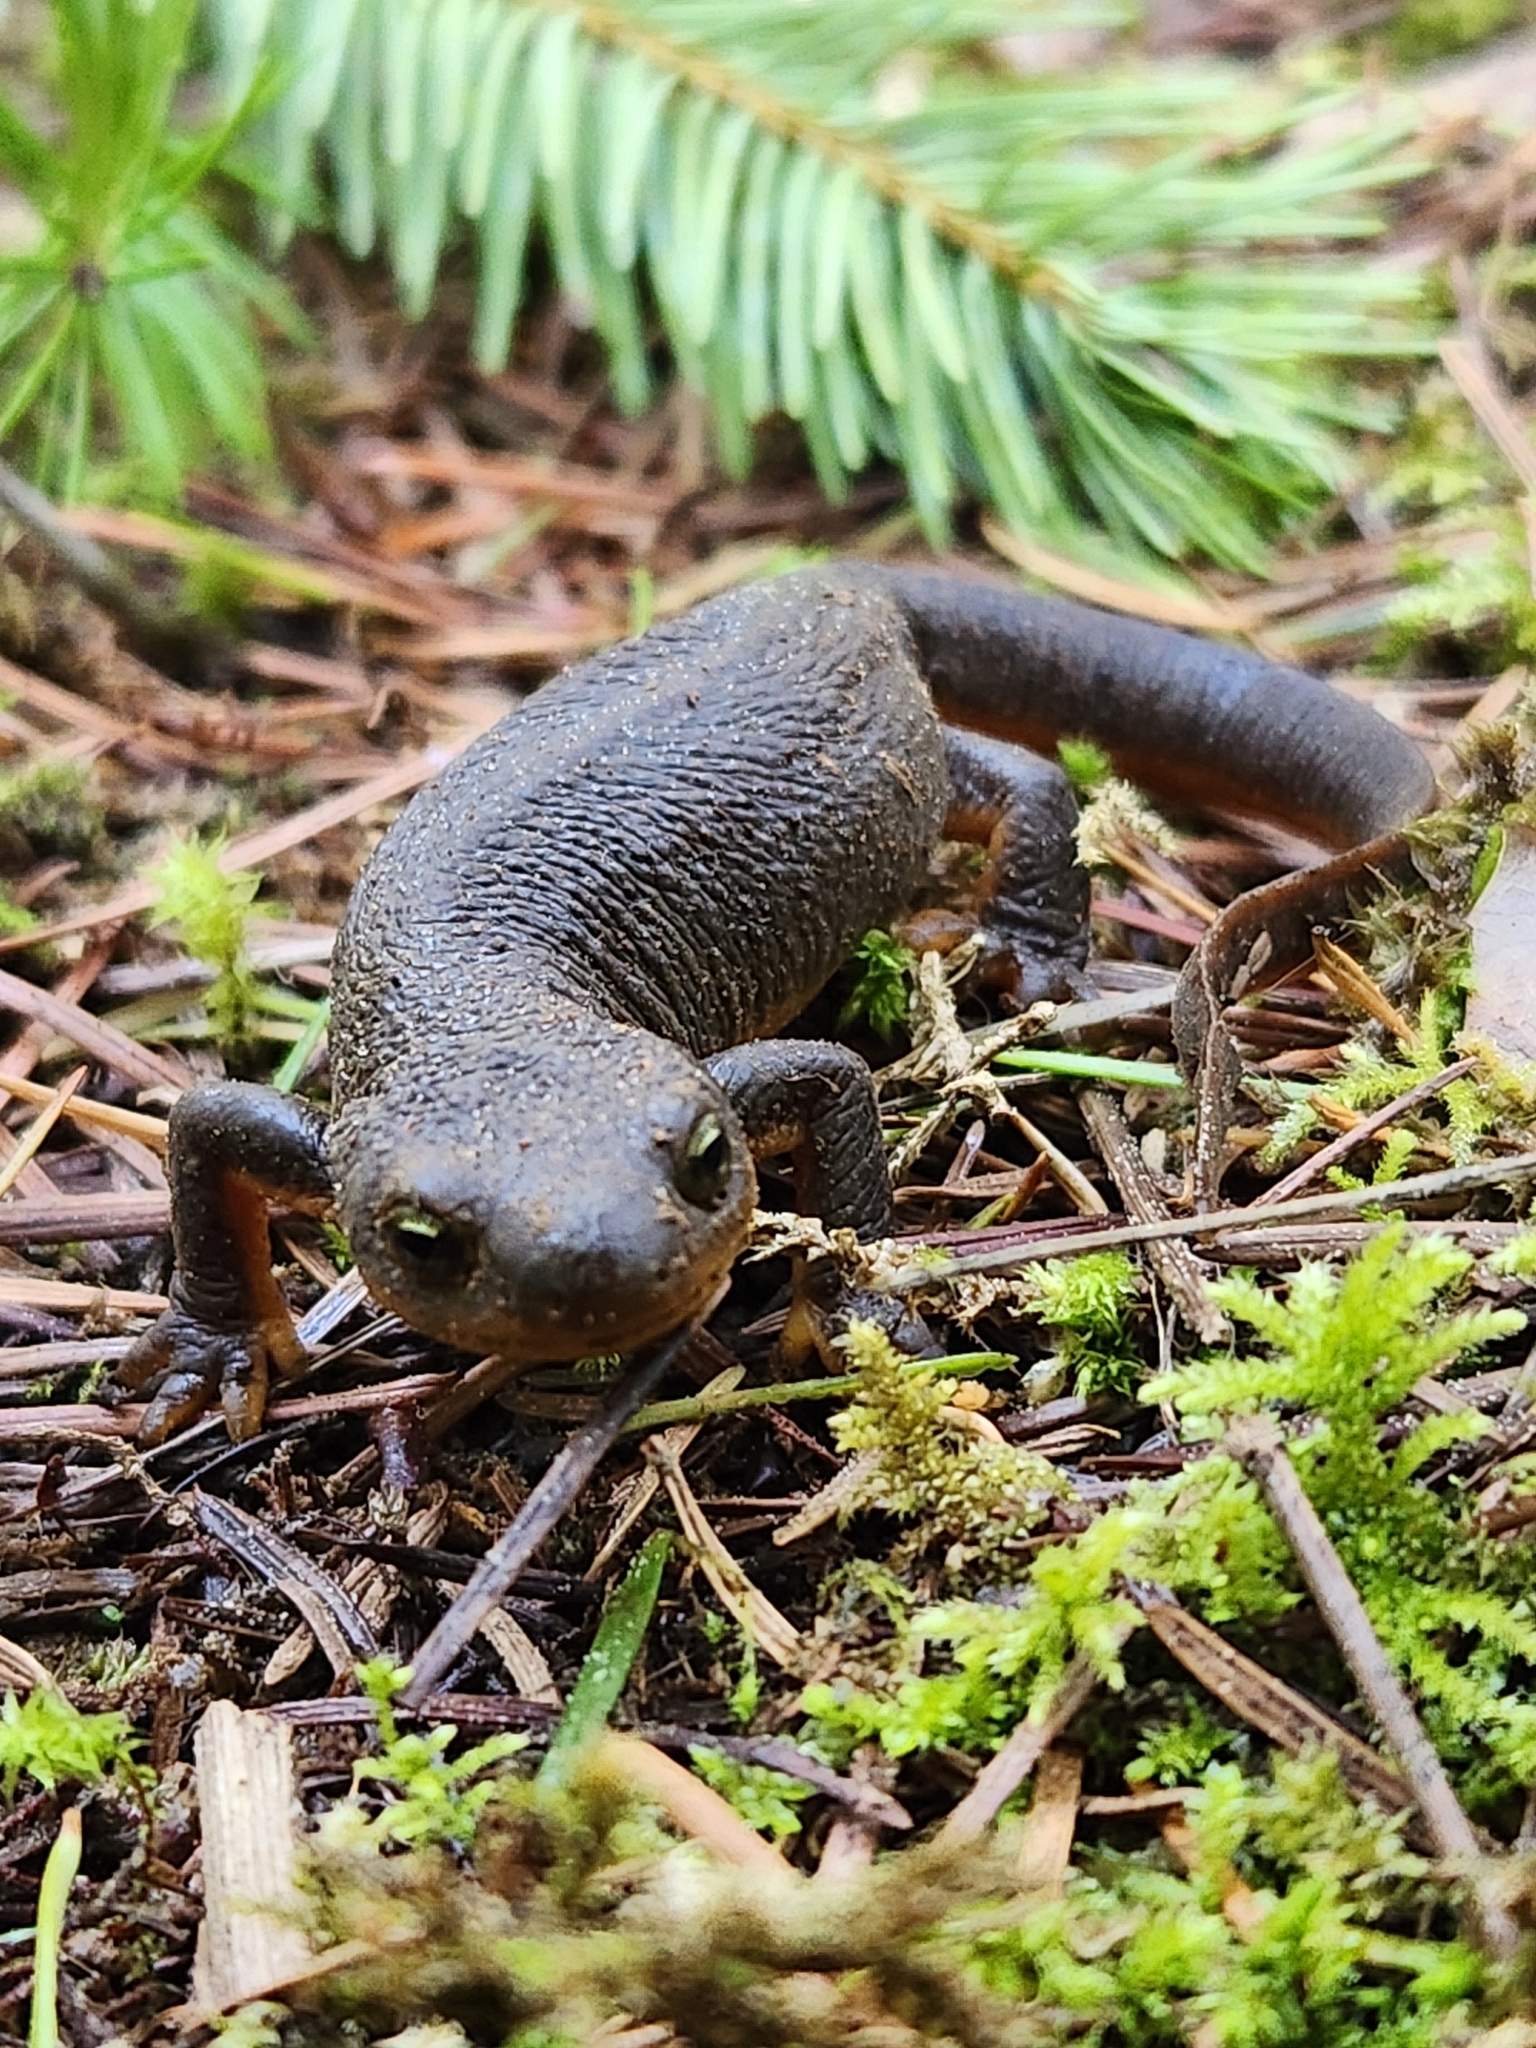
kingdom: Animalia
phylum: Chordata
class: Amphibia
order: Caudata
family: Salamandridae
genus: Taricha
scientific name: Taricha granulosa
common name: Roughskin newt
